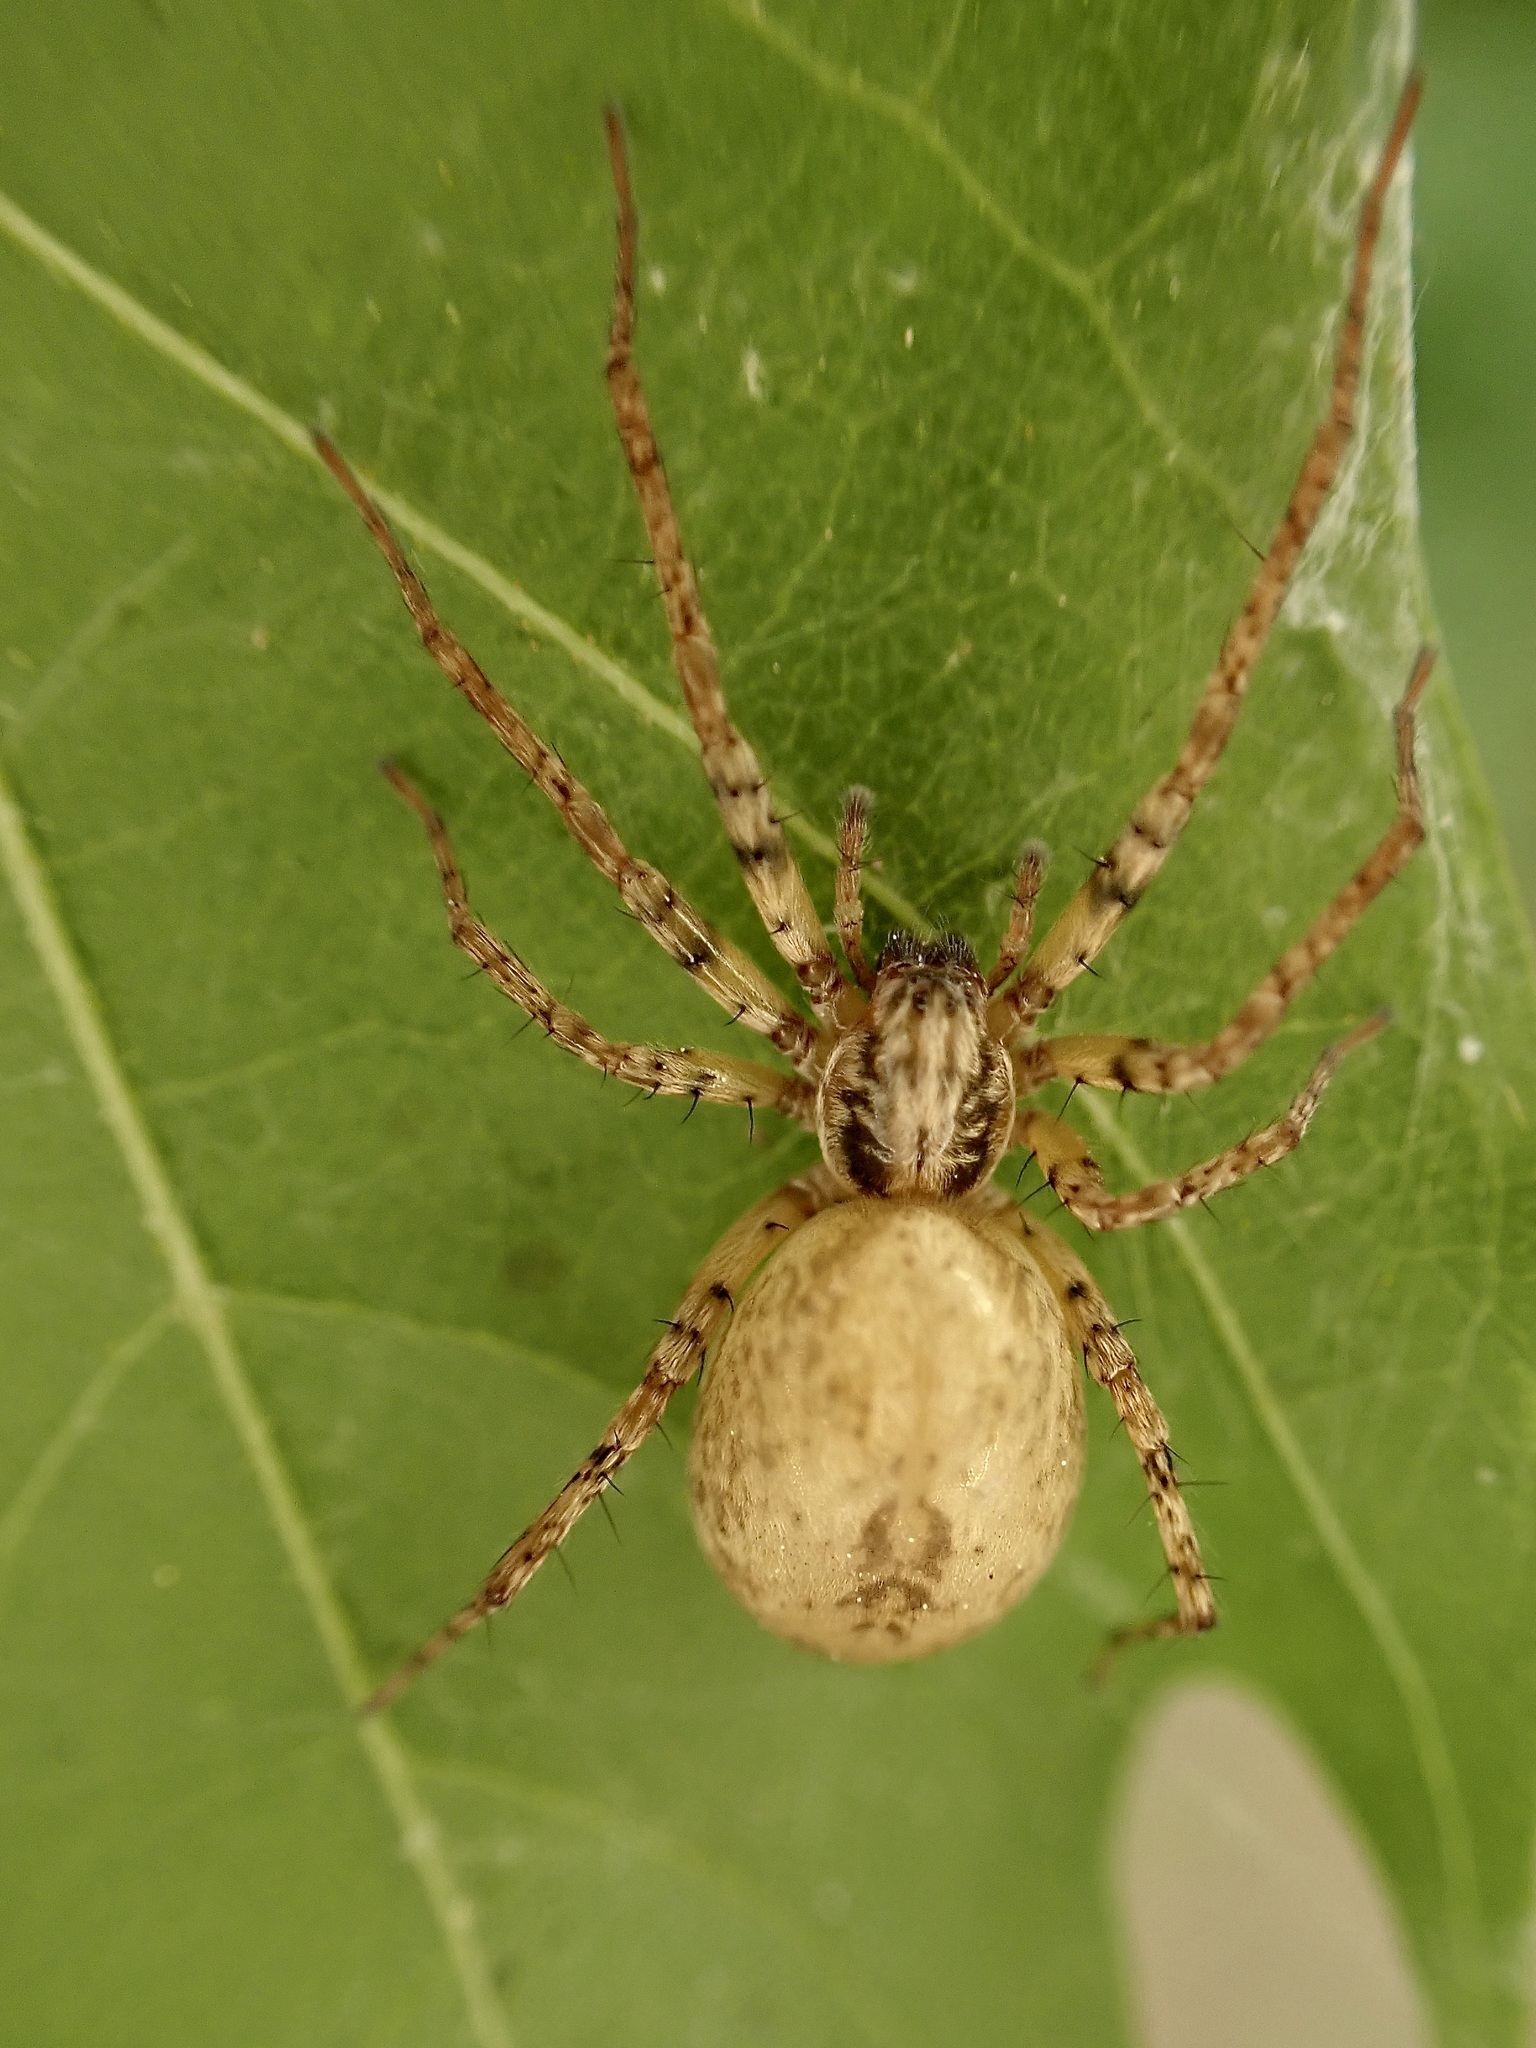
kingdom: Animalia
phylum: Arthropoda
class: Arachnida
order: Araneae
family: Anyphaenidae
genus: Anyphaena
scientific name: Anyphaena accentuata
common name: Buzzing spider
